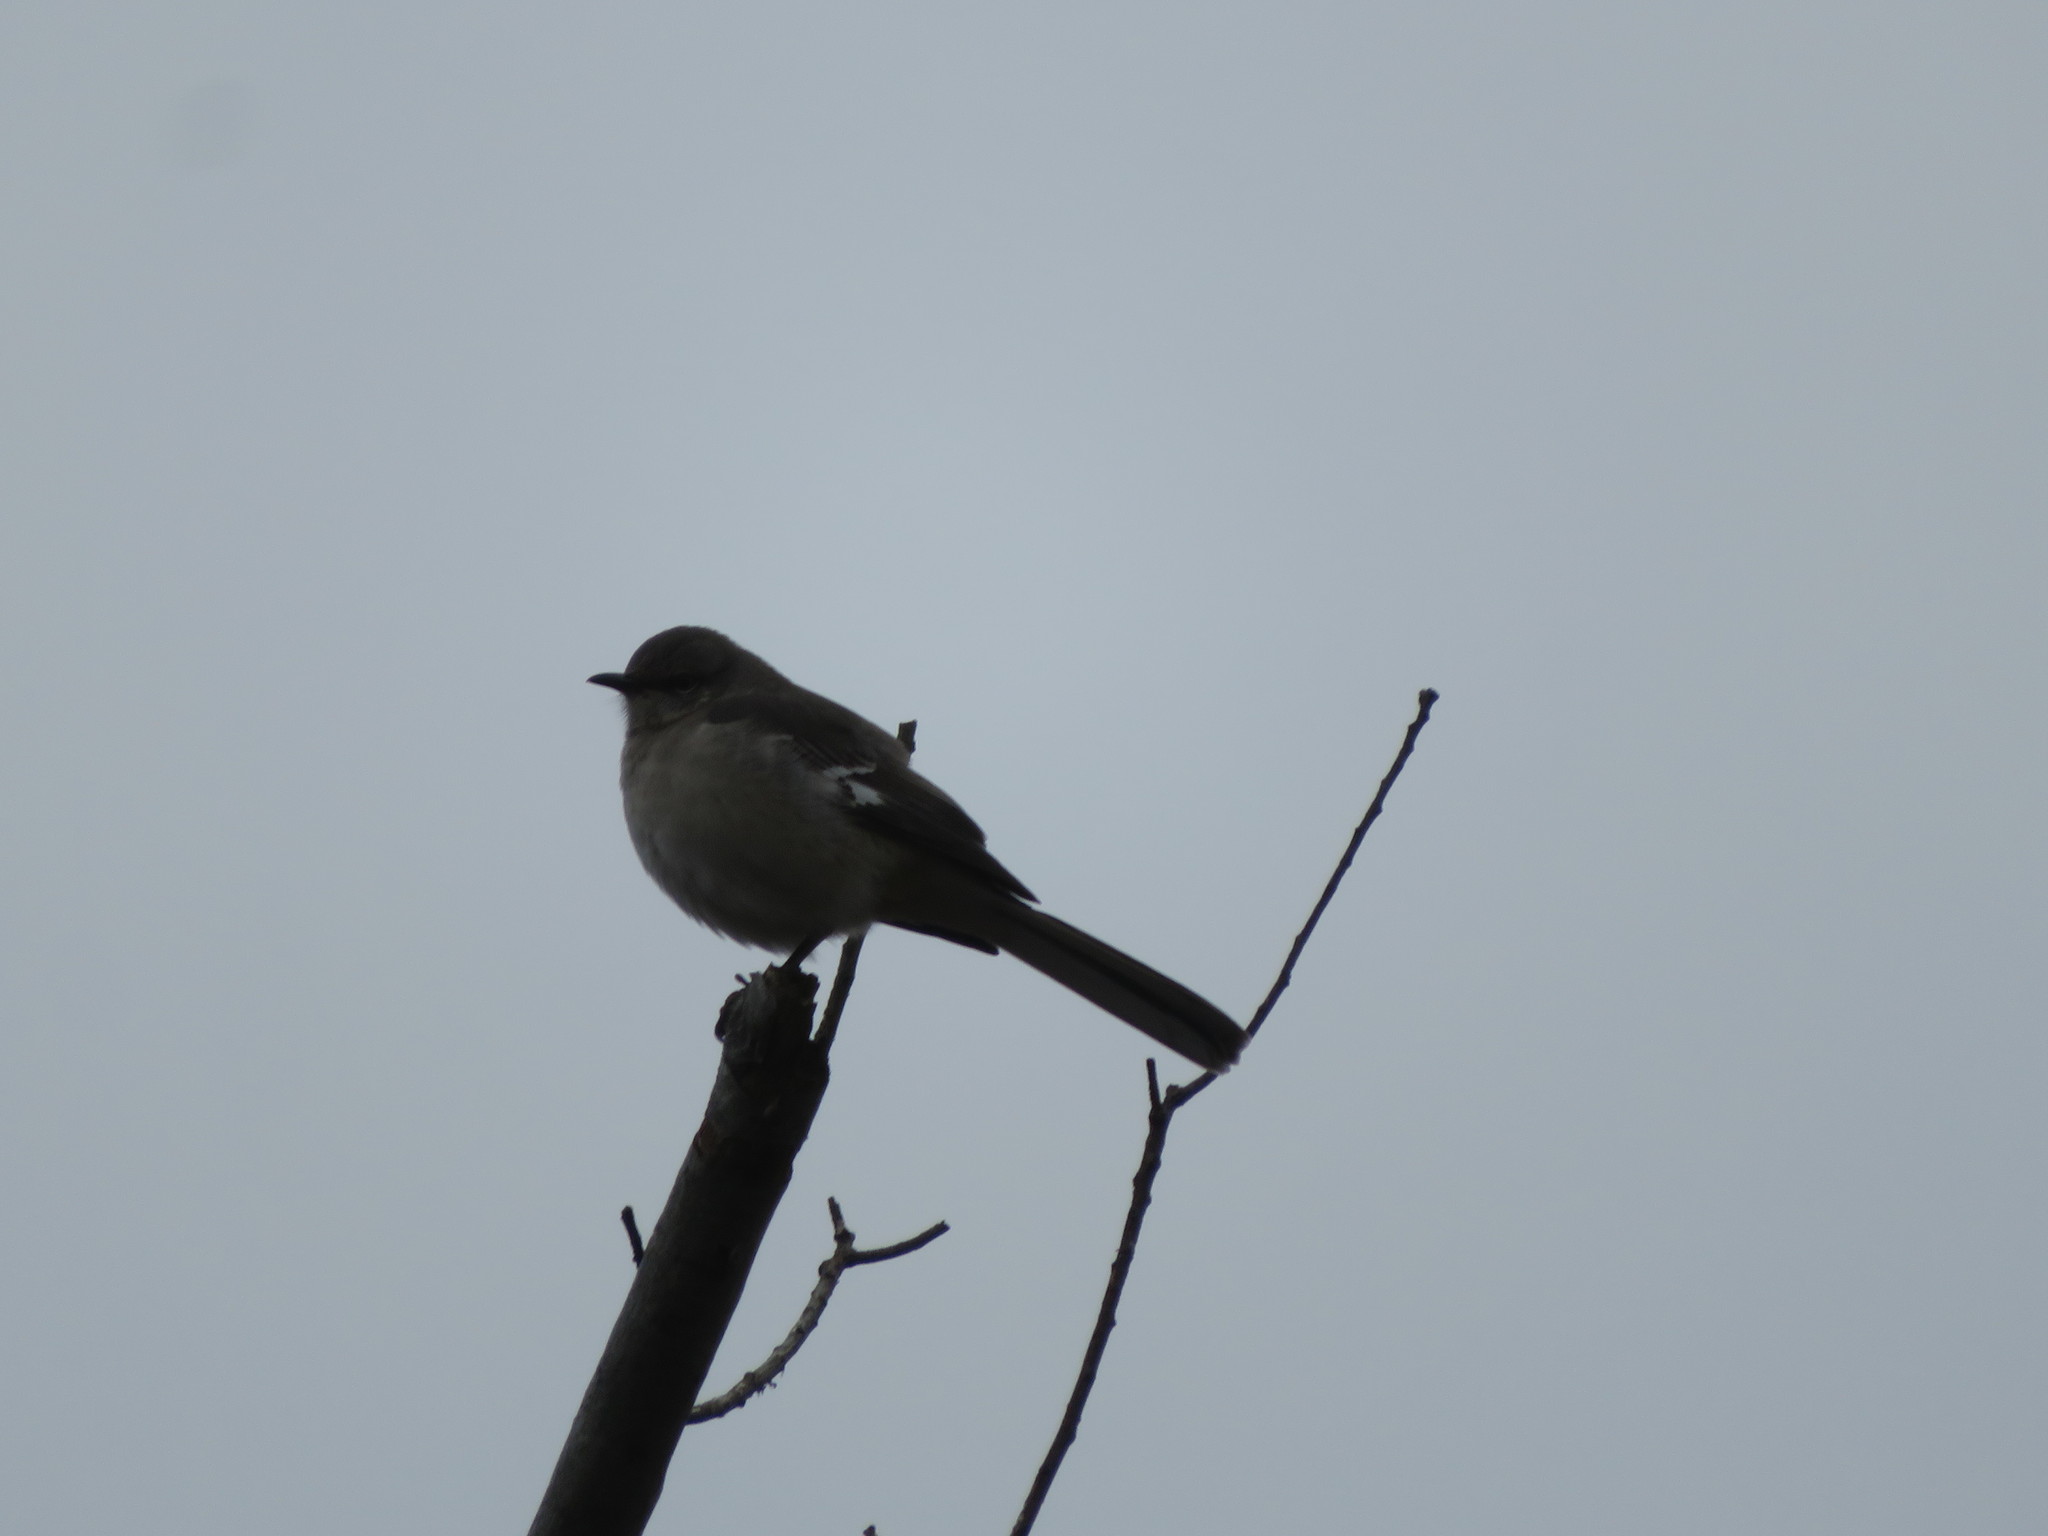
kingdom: Animalia
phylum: Chordata
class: Aves
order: Passeriformes
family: Mimidae
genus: Mimus
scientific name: Mimus polyglottos
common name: Northern mockingbird
